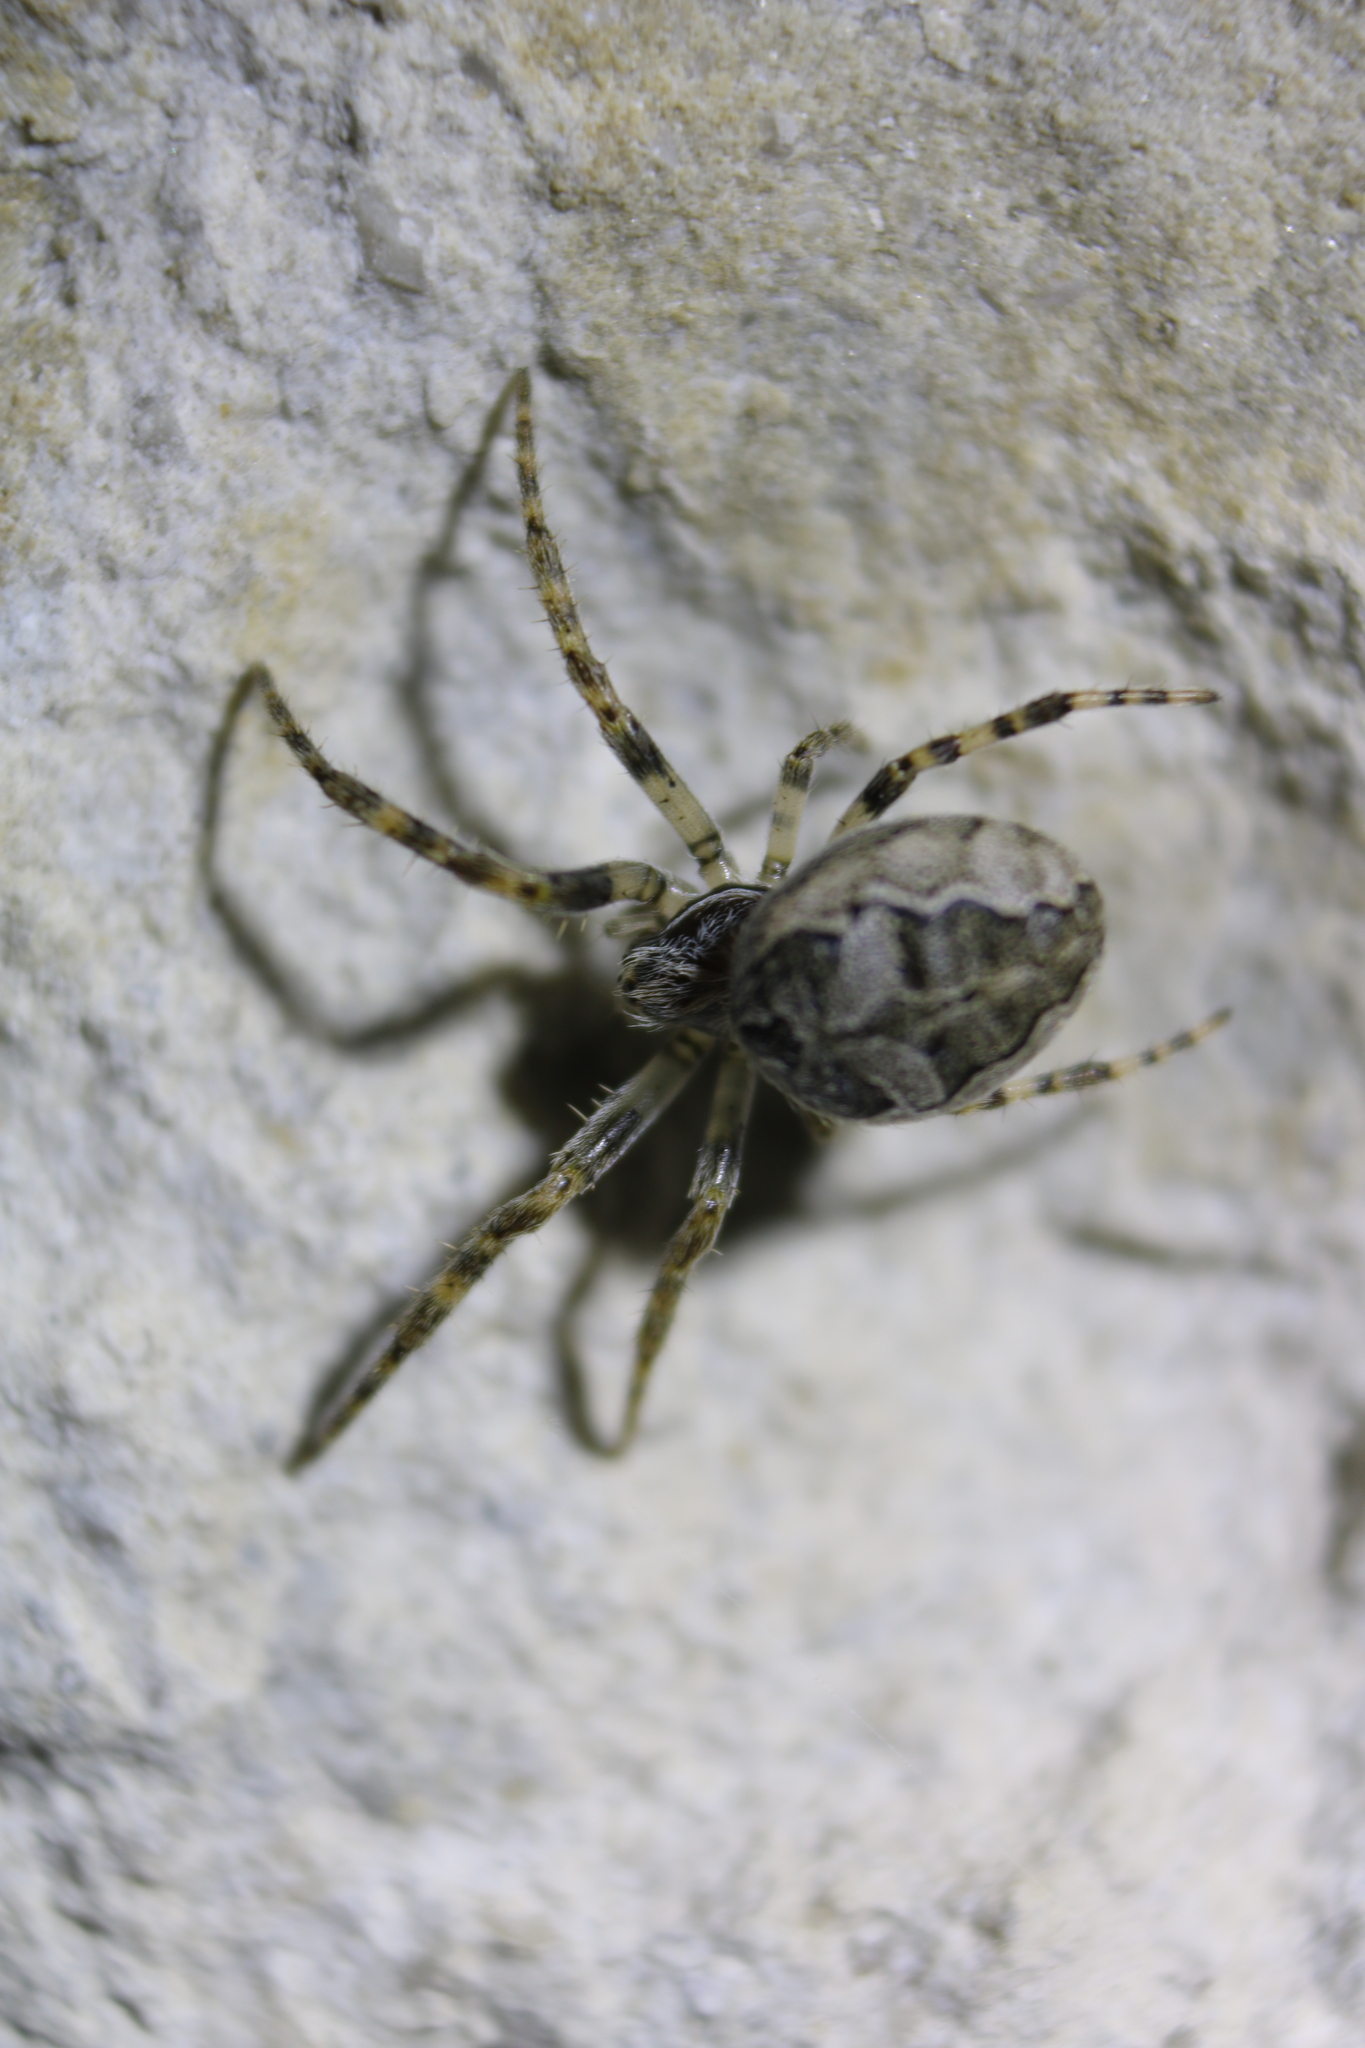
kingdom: Animalia
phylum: Arthropoda
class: Arachnida
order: Araneae
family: Araneidae
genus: Larinioides
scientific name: Larinioides sclopetarius
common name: Bridge orbweaver
